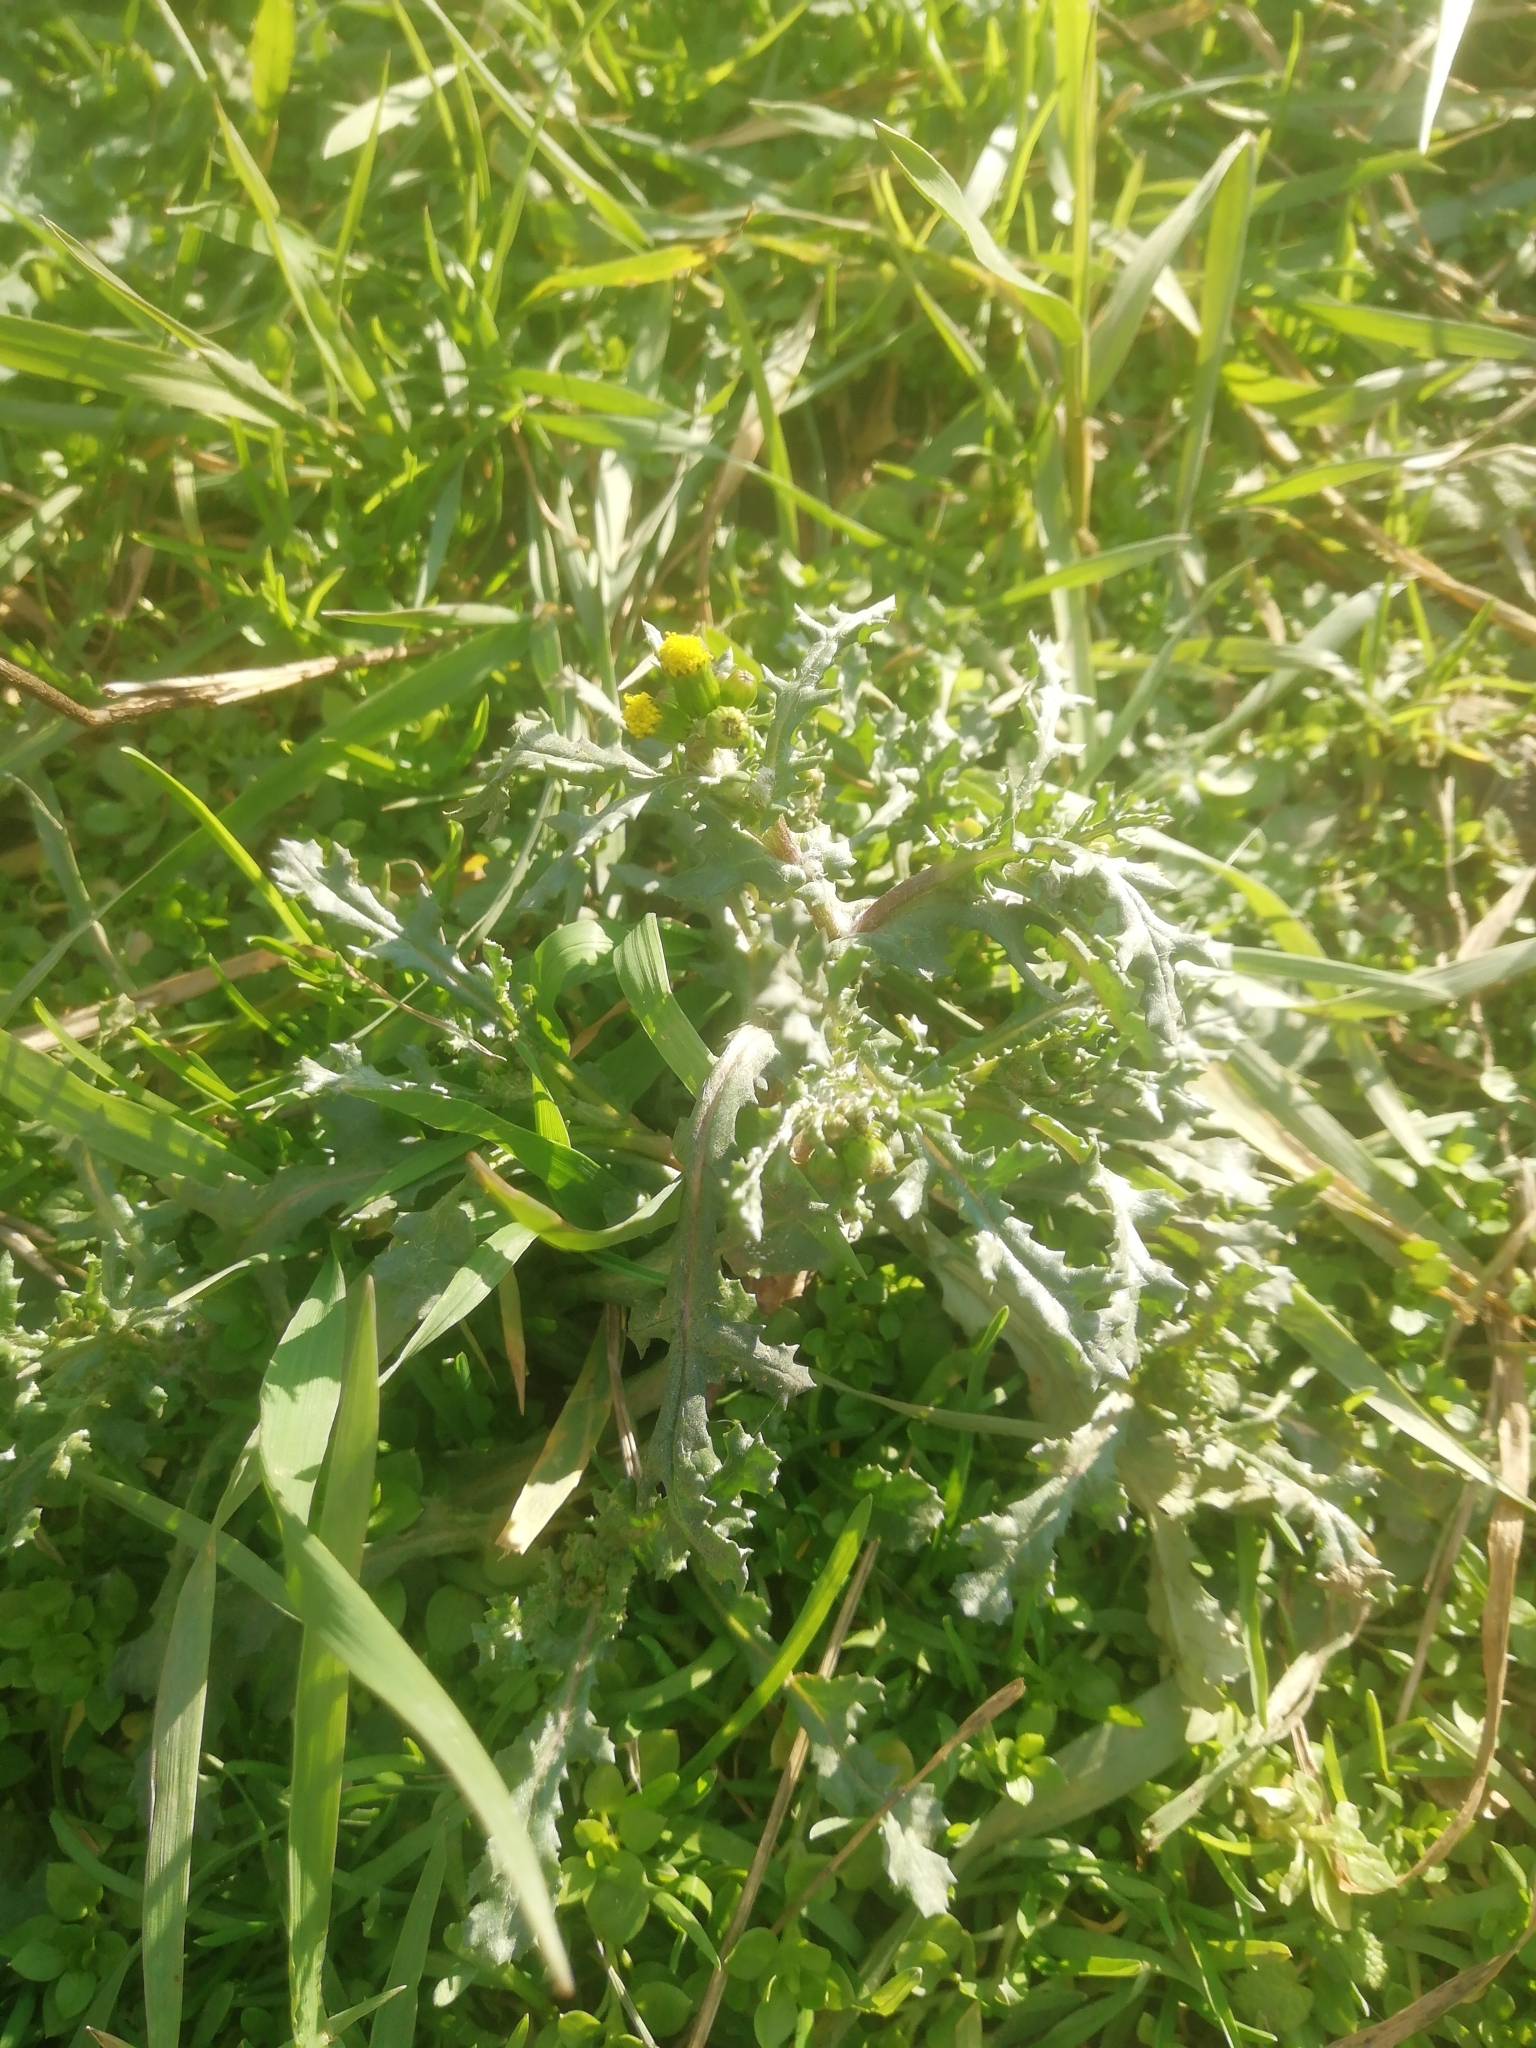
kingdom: Plantae
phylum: Tracheophyta
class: Magnoliopsida
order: Asterales
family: Asteraceae
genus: Senecio
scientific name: Senecio vulgaris
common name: Old-man-in-the-spring
